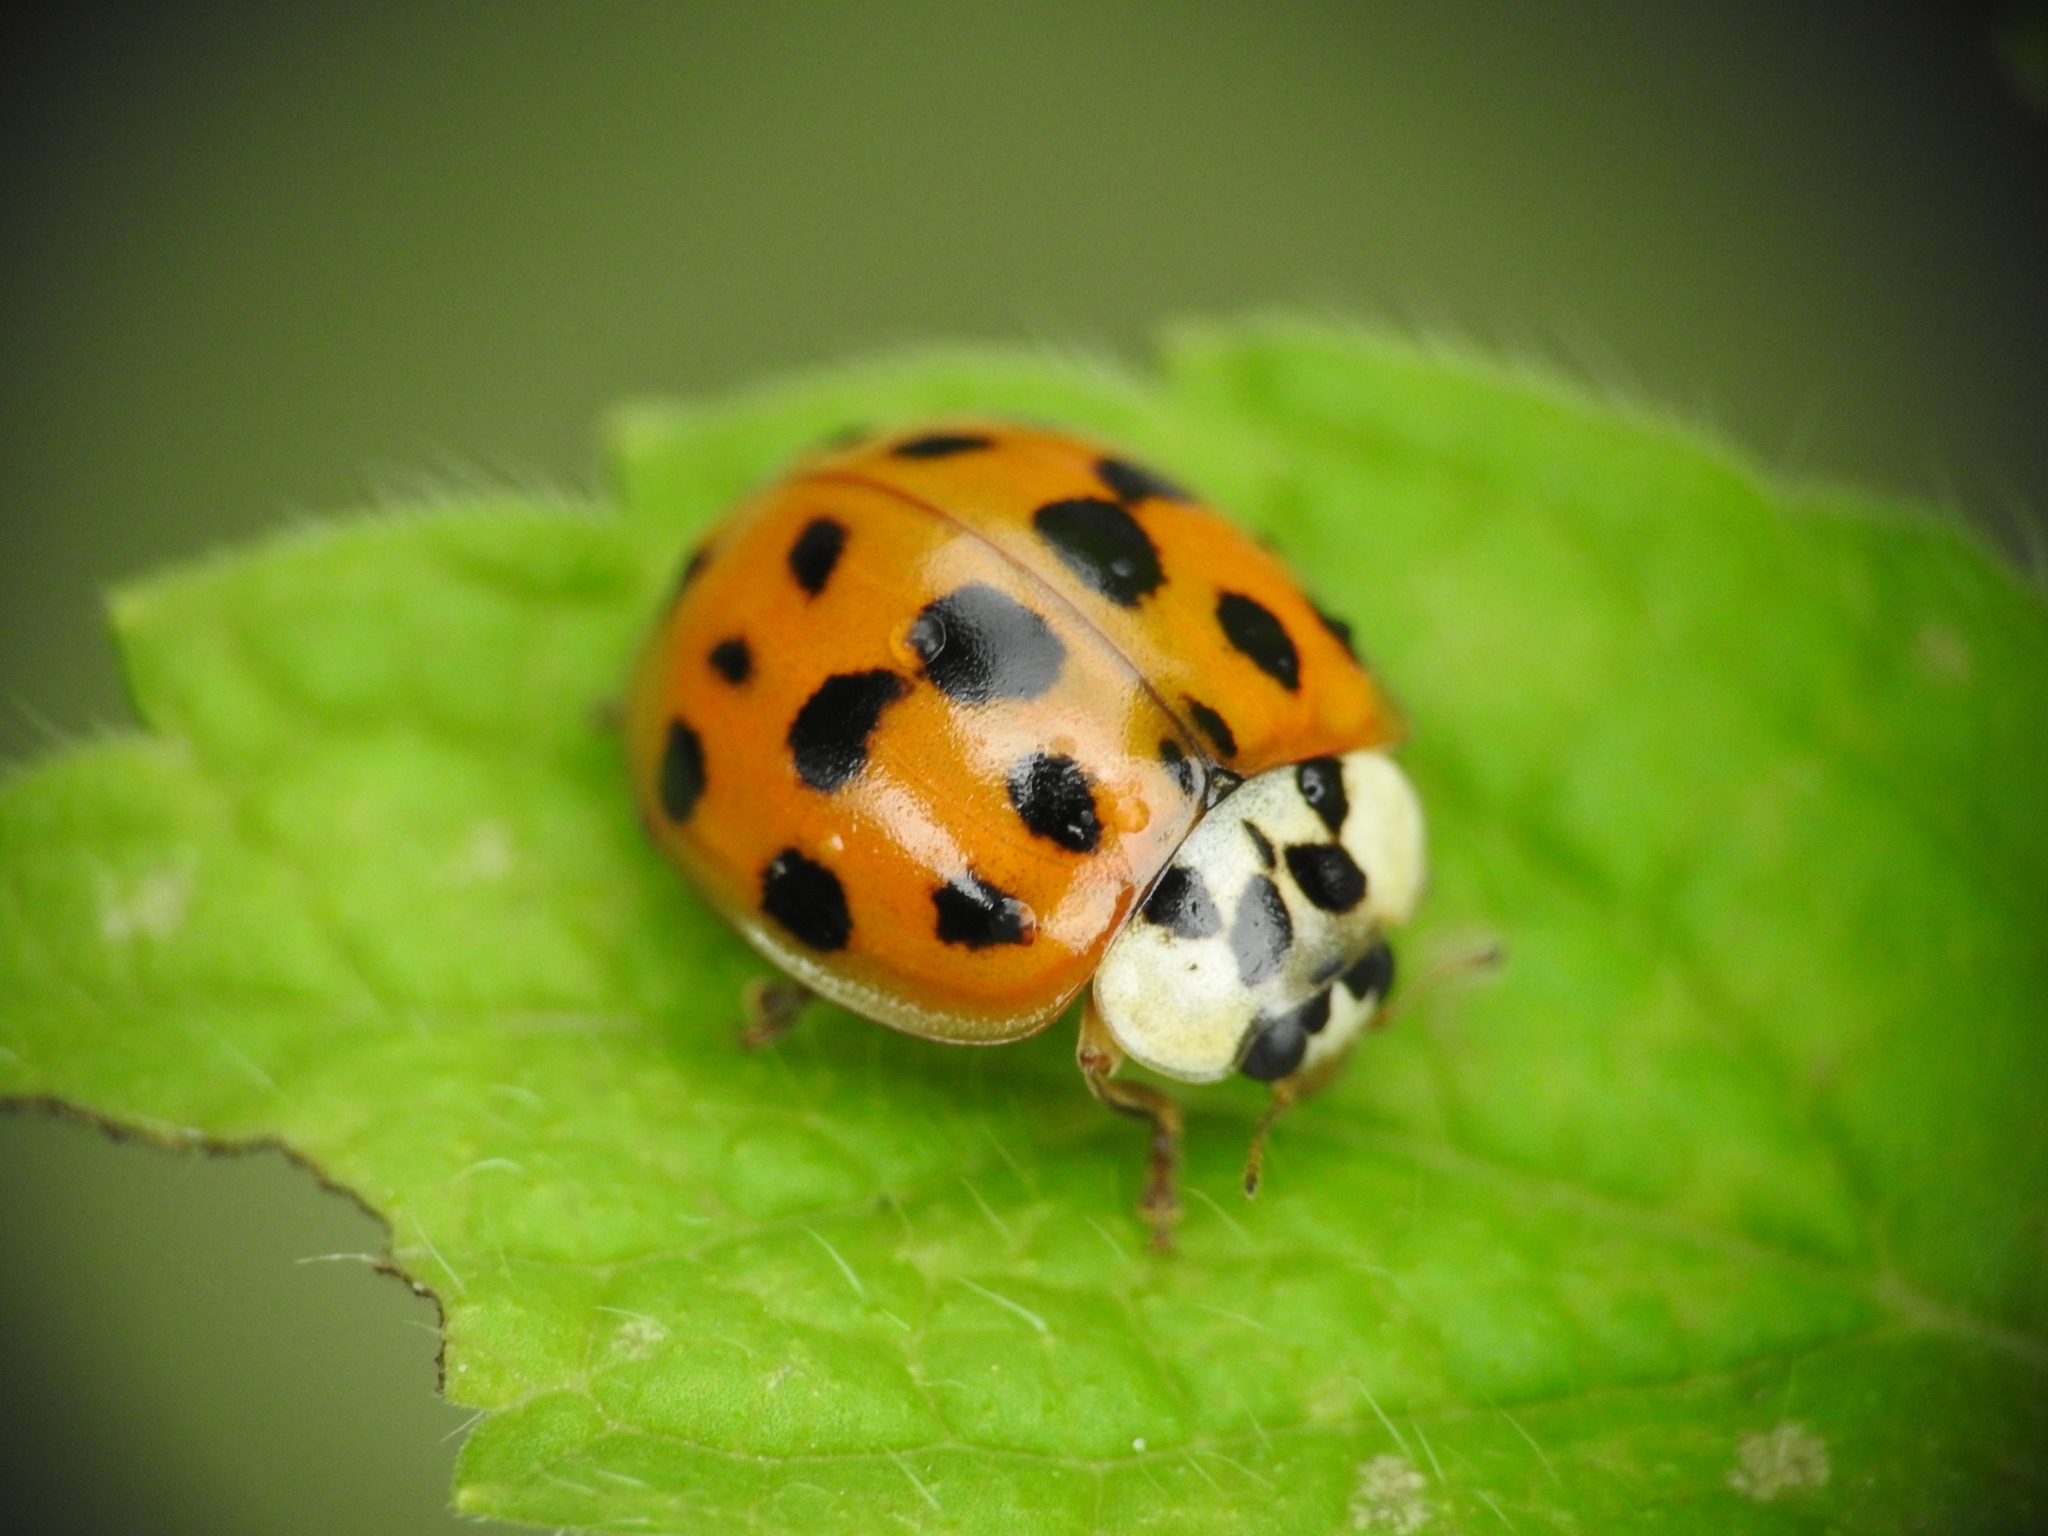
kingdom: Animalia
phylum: Arthropoda
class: Insecta
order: Coleoptera
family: Coccinellidae
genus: Harmonia
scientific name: Harmonia axyridis
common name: Harlequin ladybird
